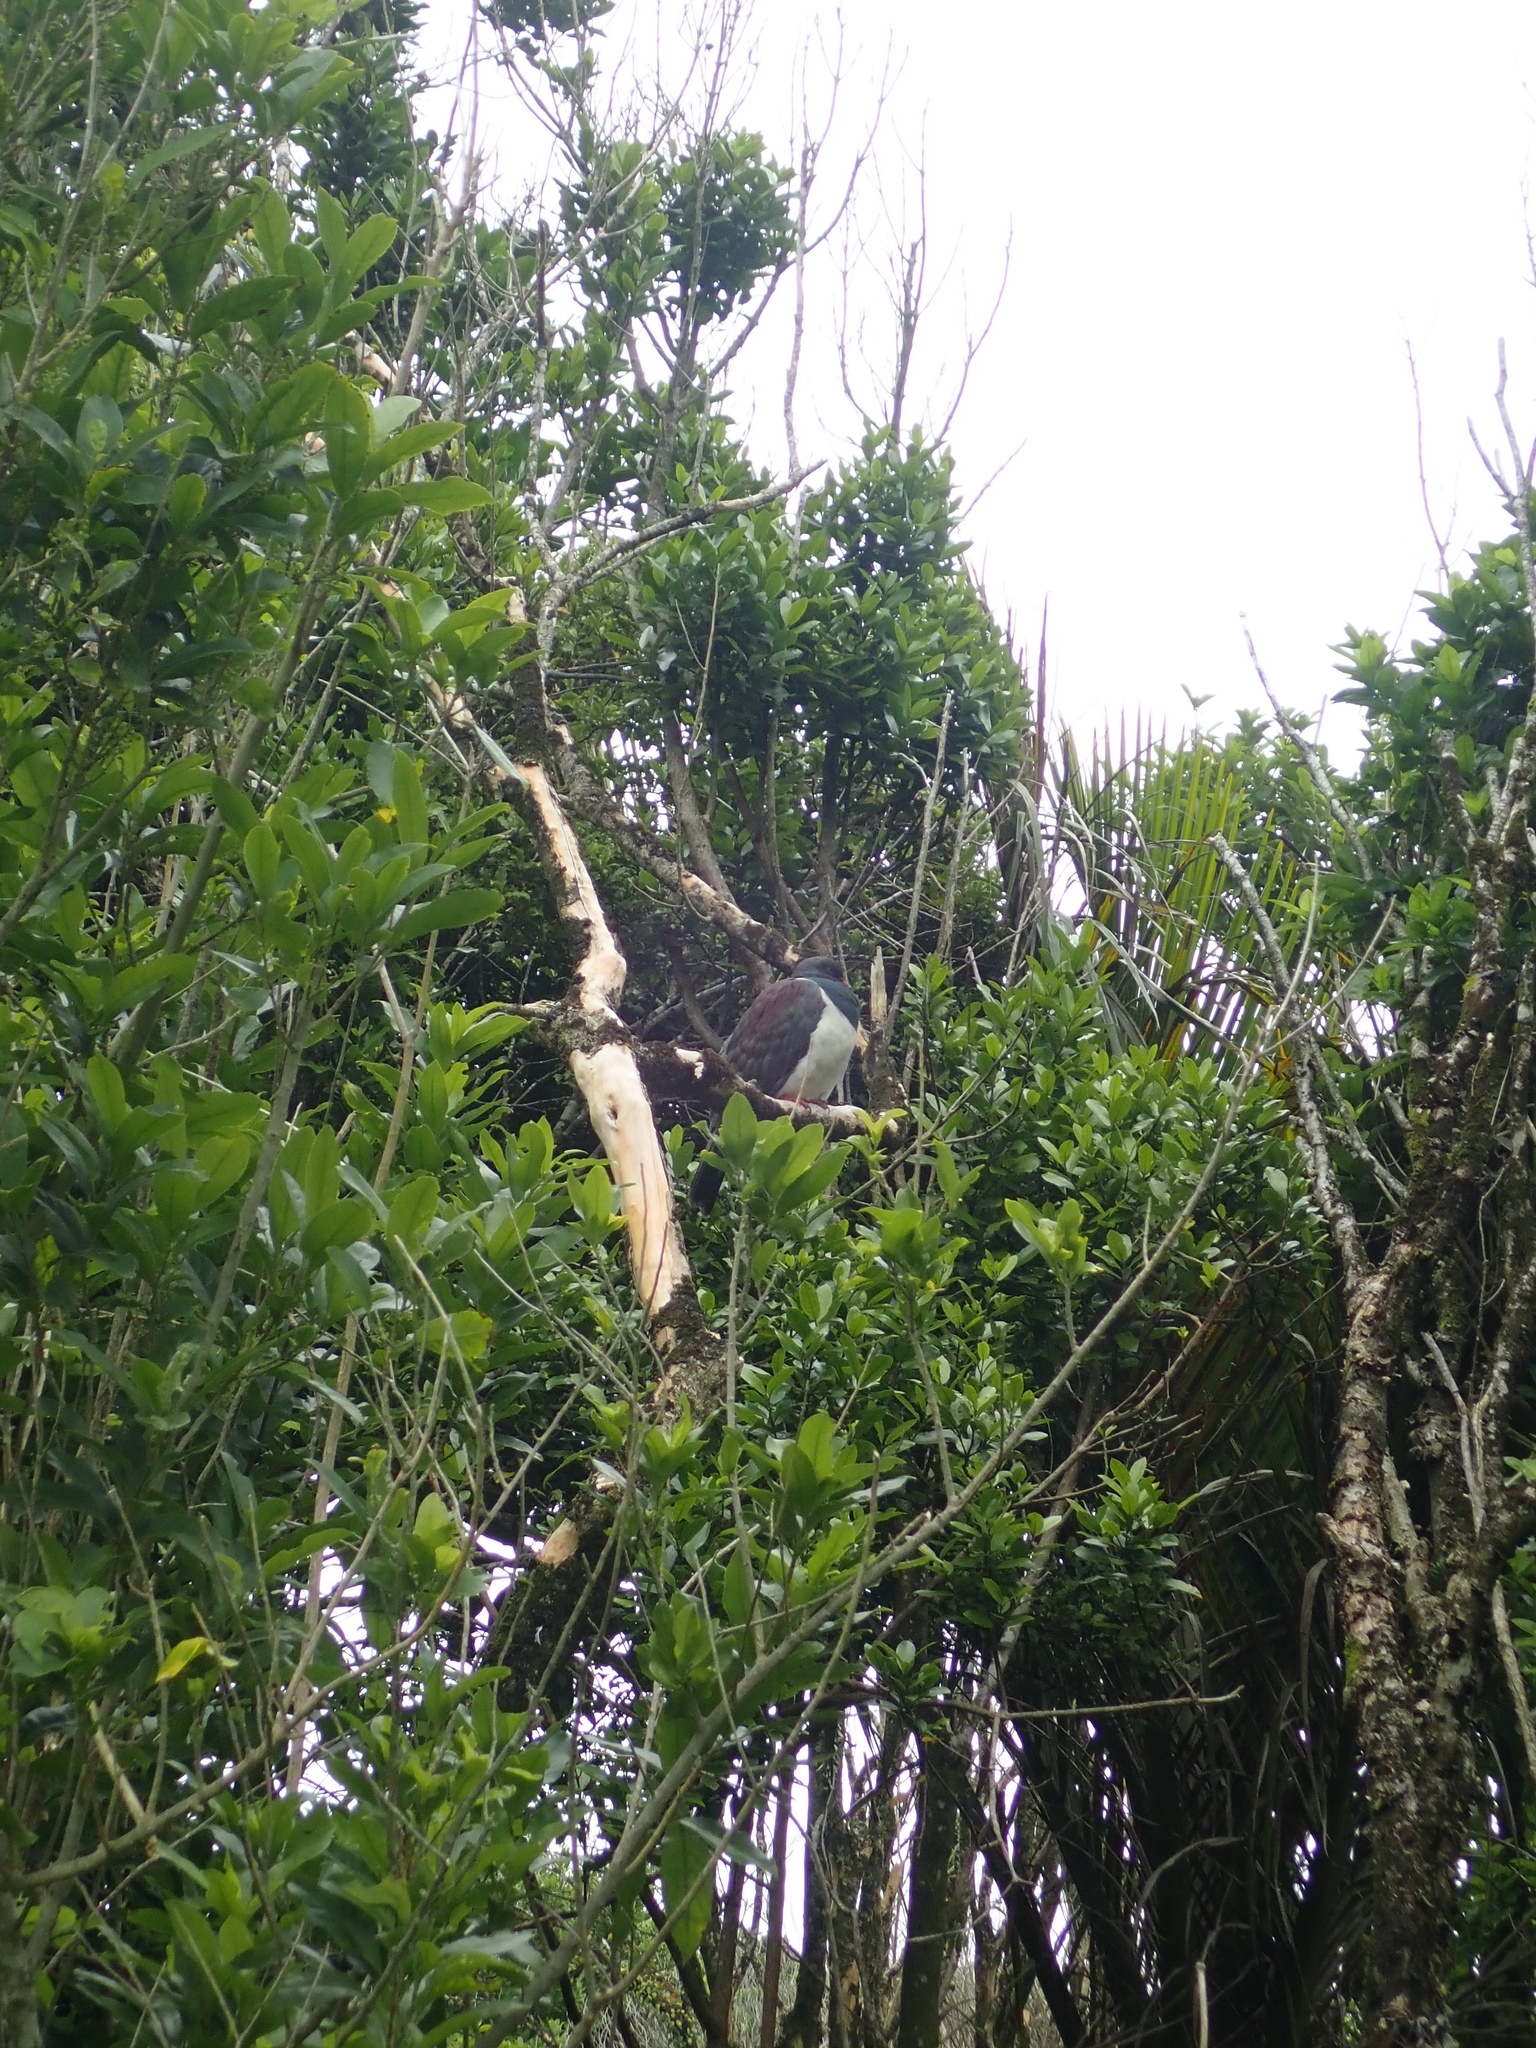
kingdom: Animalia
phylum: Chordata
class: Aves
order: Columbiformes
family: Columbidae
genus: Hemiphaga
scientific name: Hemiphaga novaeseelandiae
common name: New zealand pigeon
